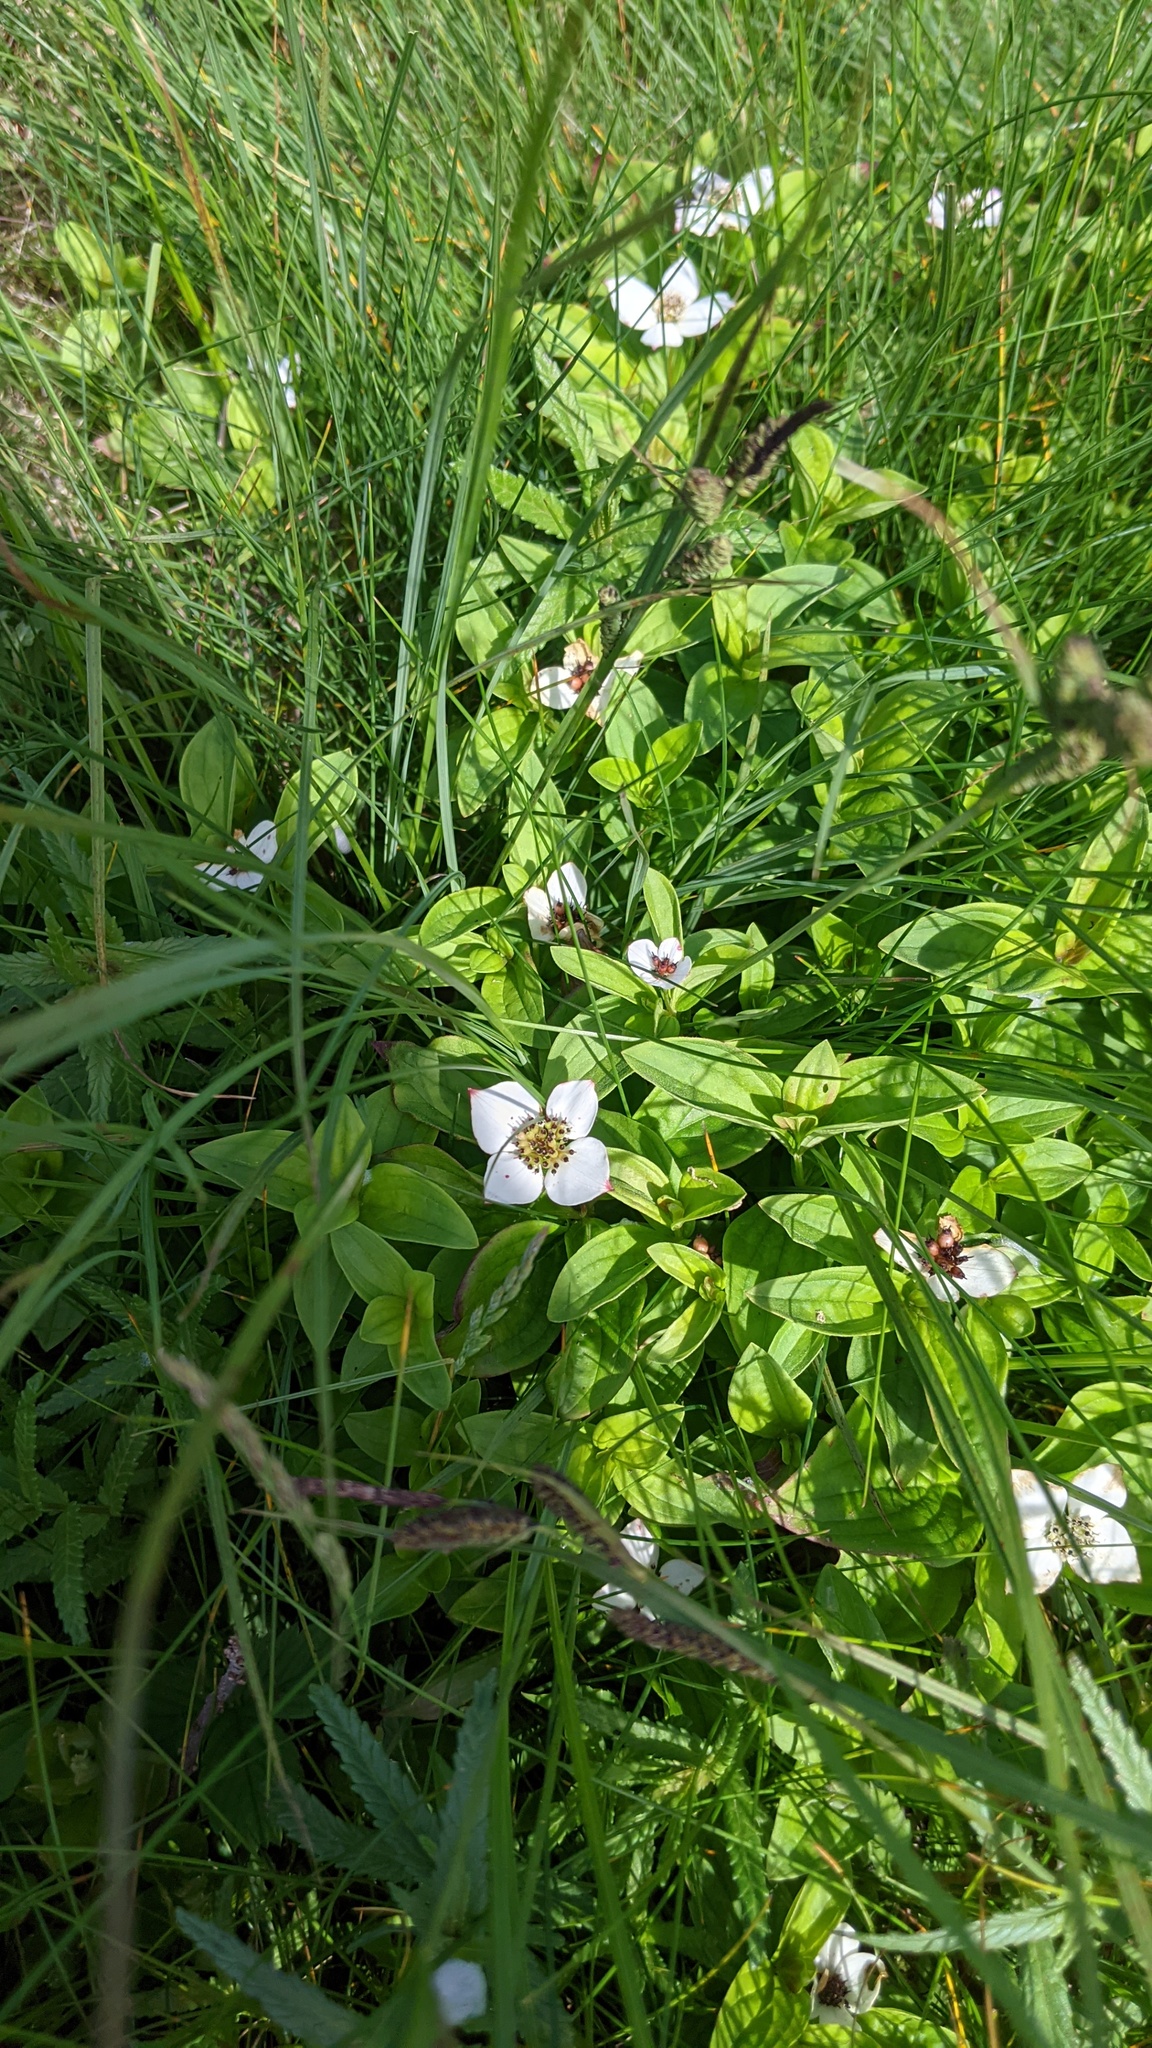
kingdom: Plantae
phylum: Tracheophyta
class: Magnoliopsida
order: Cornales
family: Cornaceae
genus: Cornus
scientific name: Cornus canadensis
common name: Creeping dogwood
